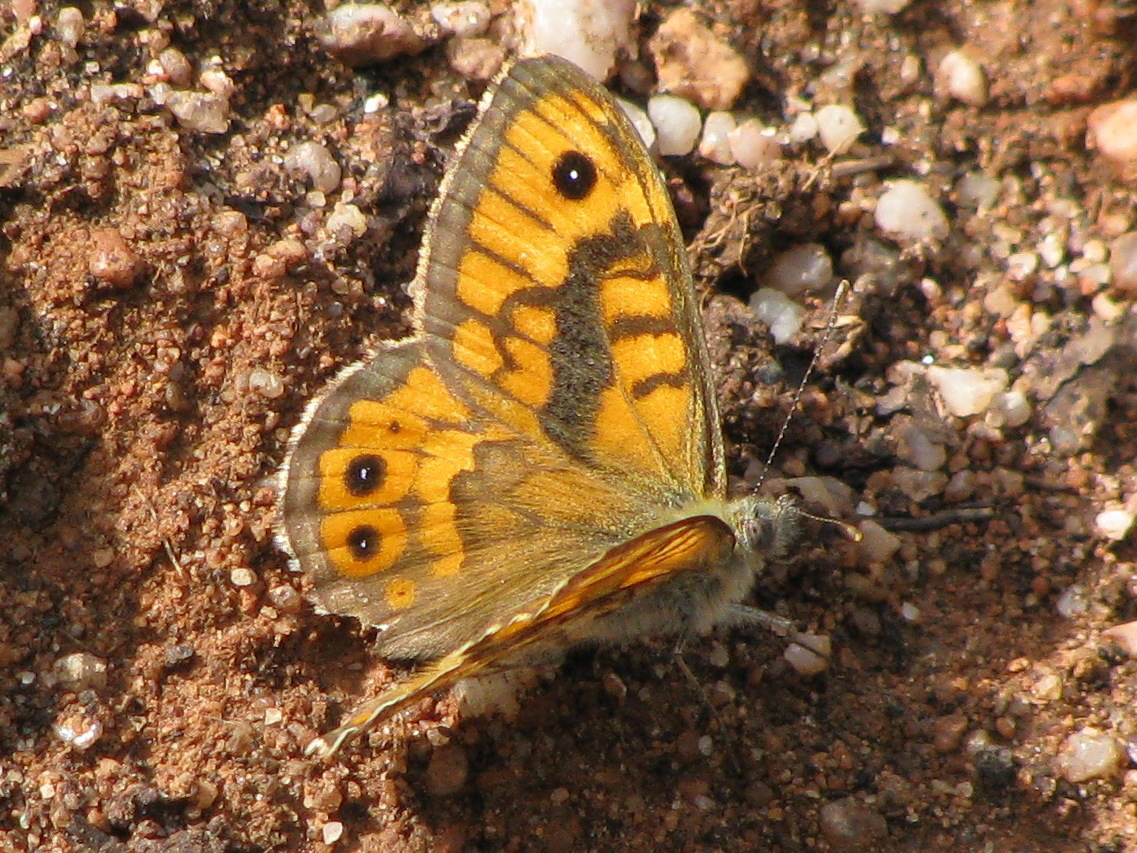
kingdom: Animalia
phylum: Arthropoda
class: Insecta
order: Lepidoptera
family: Nymphalidae
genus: Pararge
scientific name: Pararge Lasiommata megera
